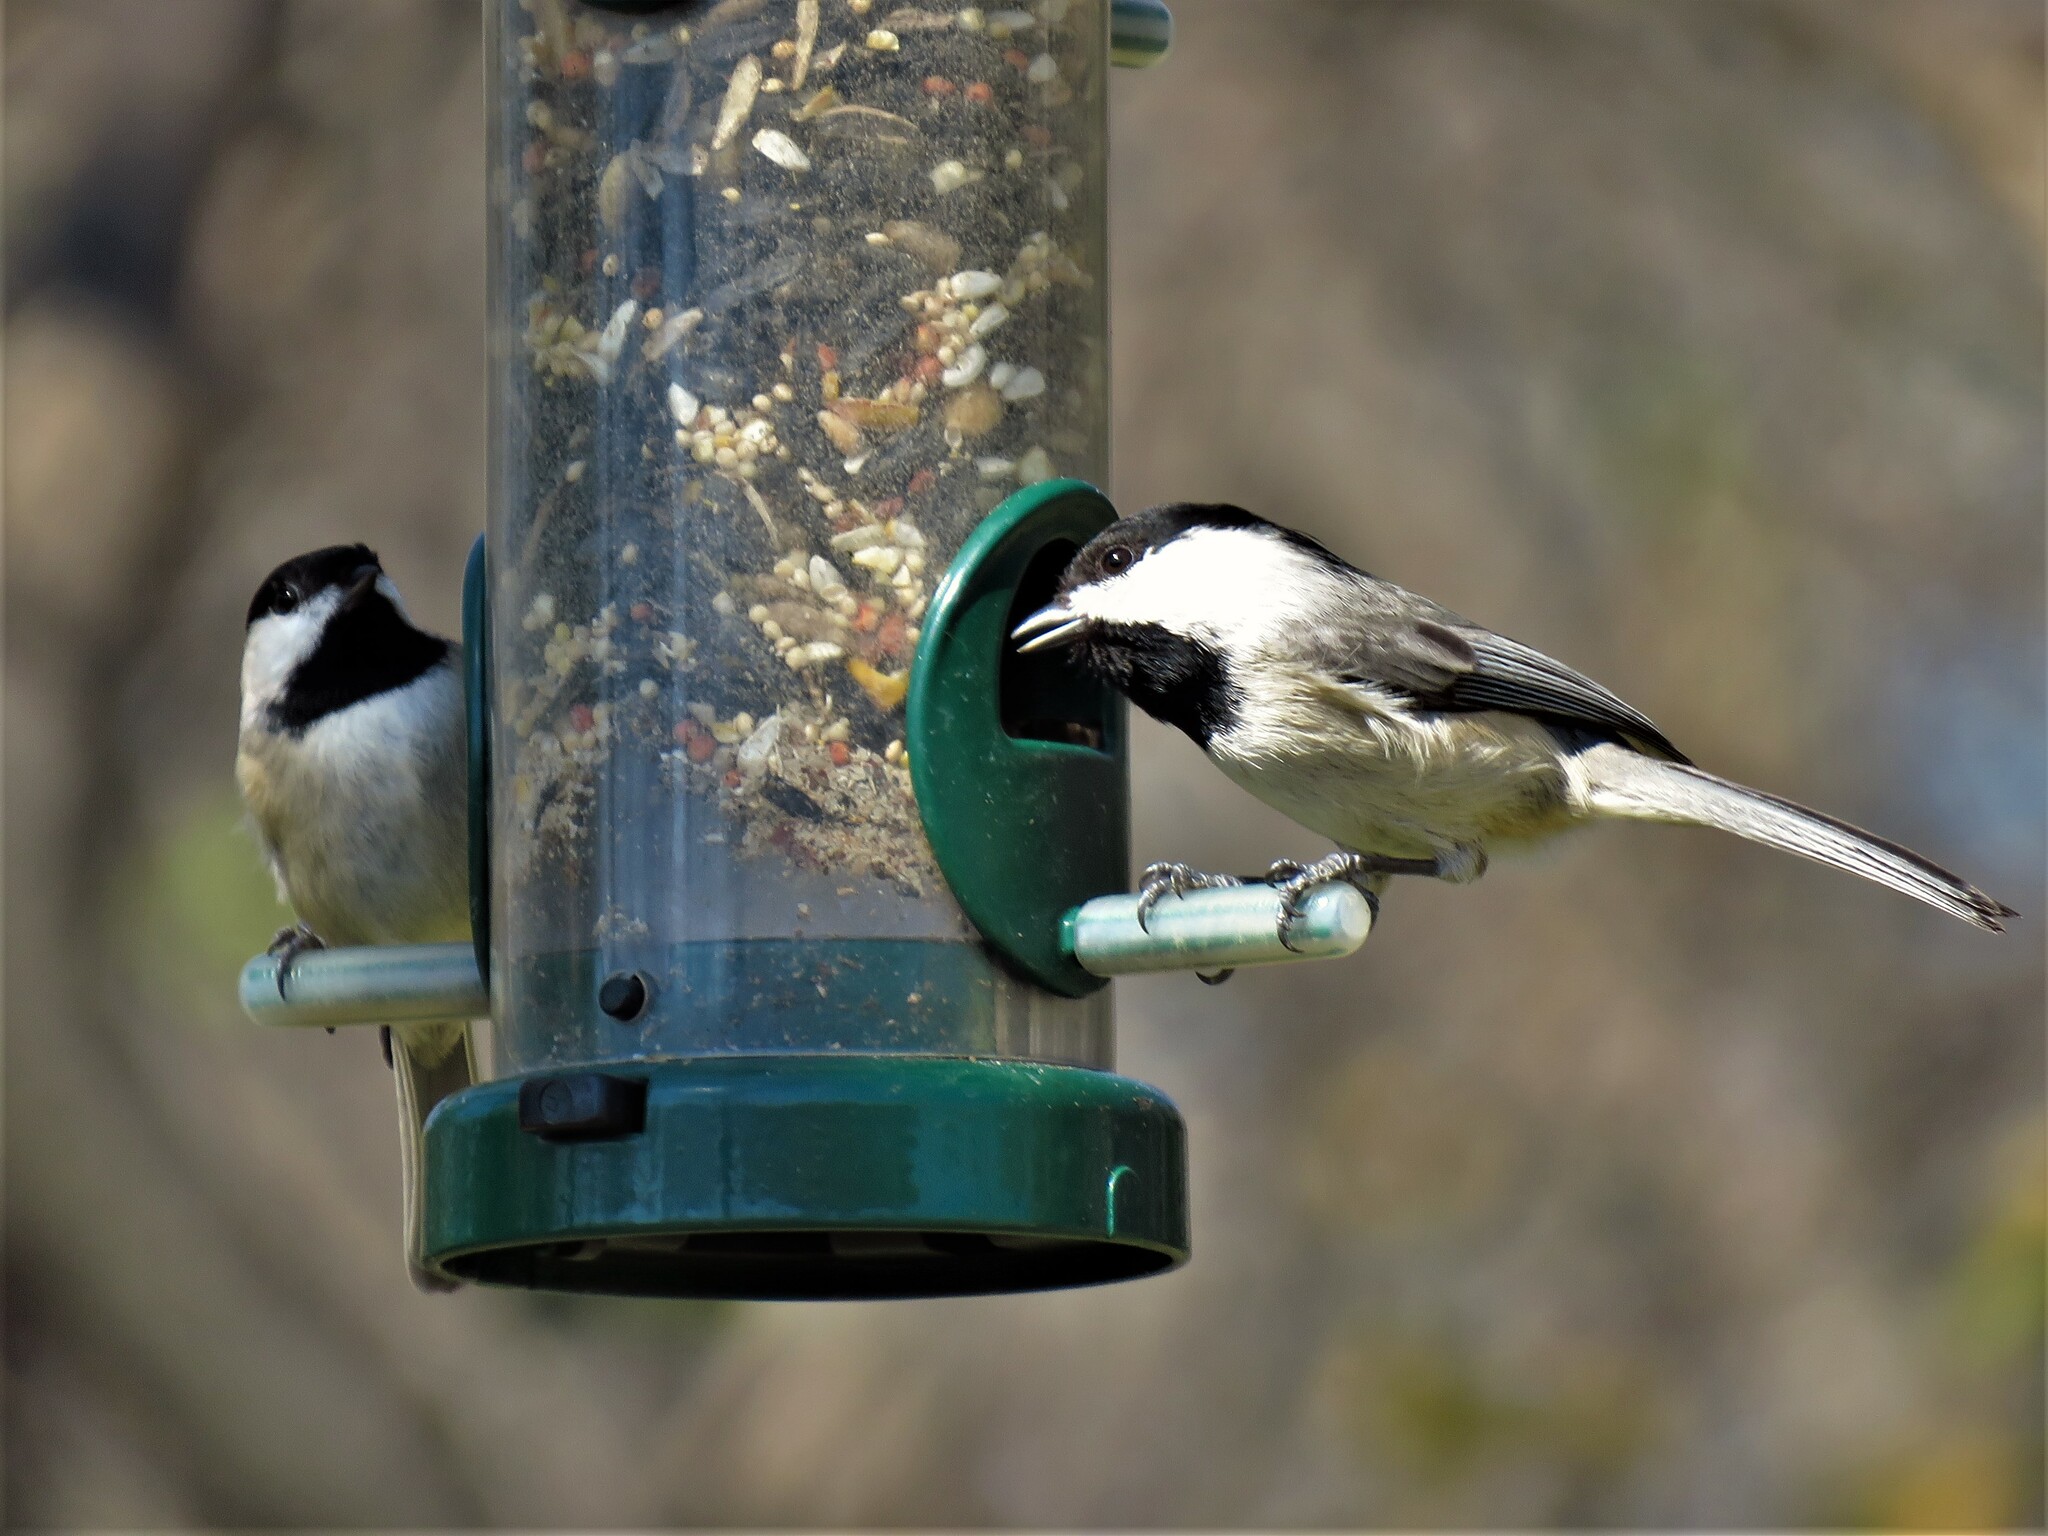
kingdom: Animalia
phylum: Chordata
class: Aves
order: Passeriformes
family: Paridae
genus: Poecile
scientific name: Poecile carolinensis
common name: Carolina chickadee
